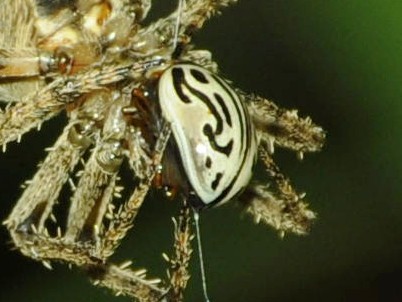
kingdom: Animalia
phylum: Arthropoda
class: Insecta
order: Coleoptera
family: Chrysomelidae
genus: Calligrapha
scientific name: Calligrapha
